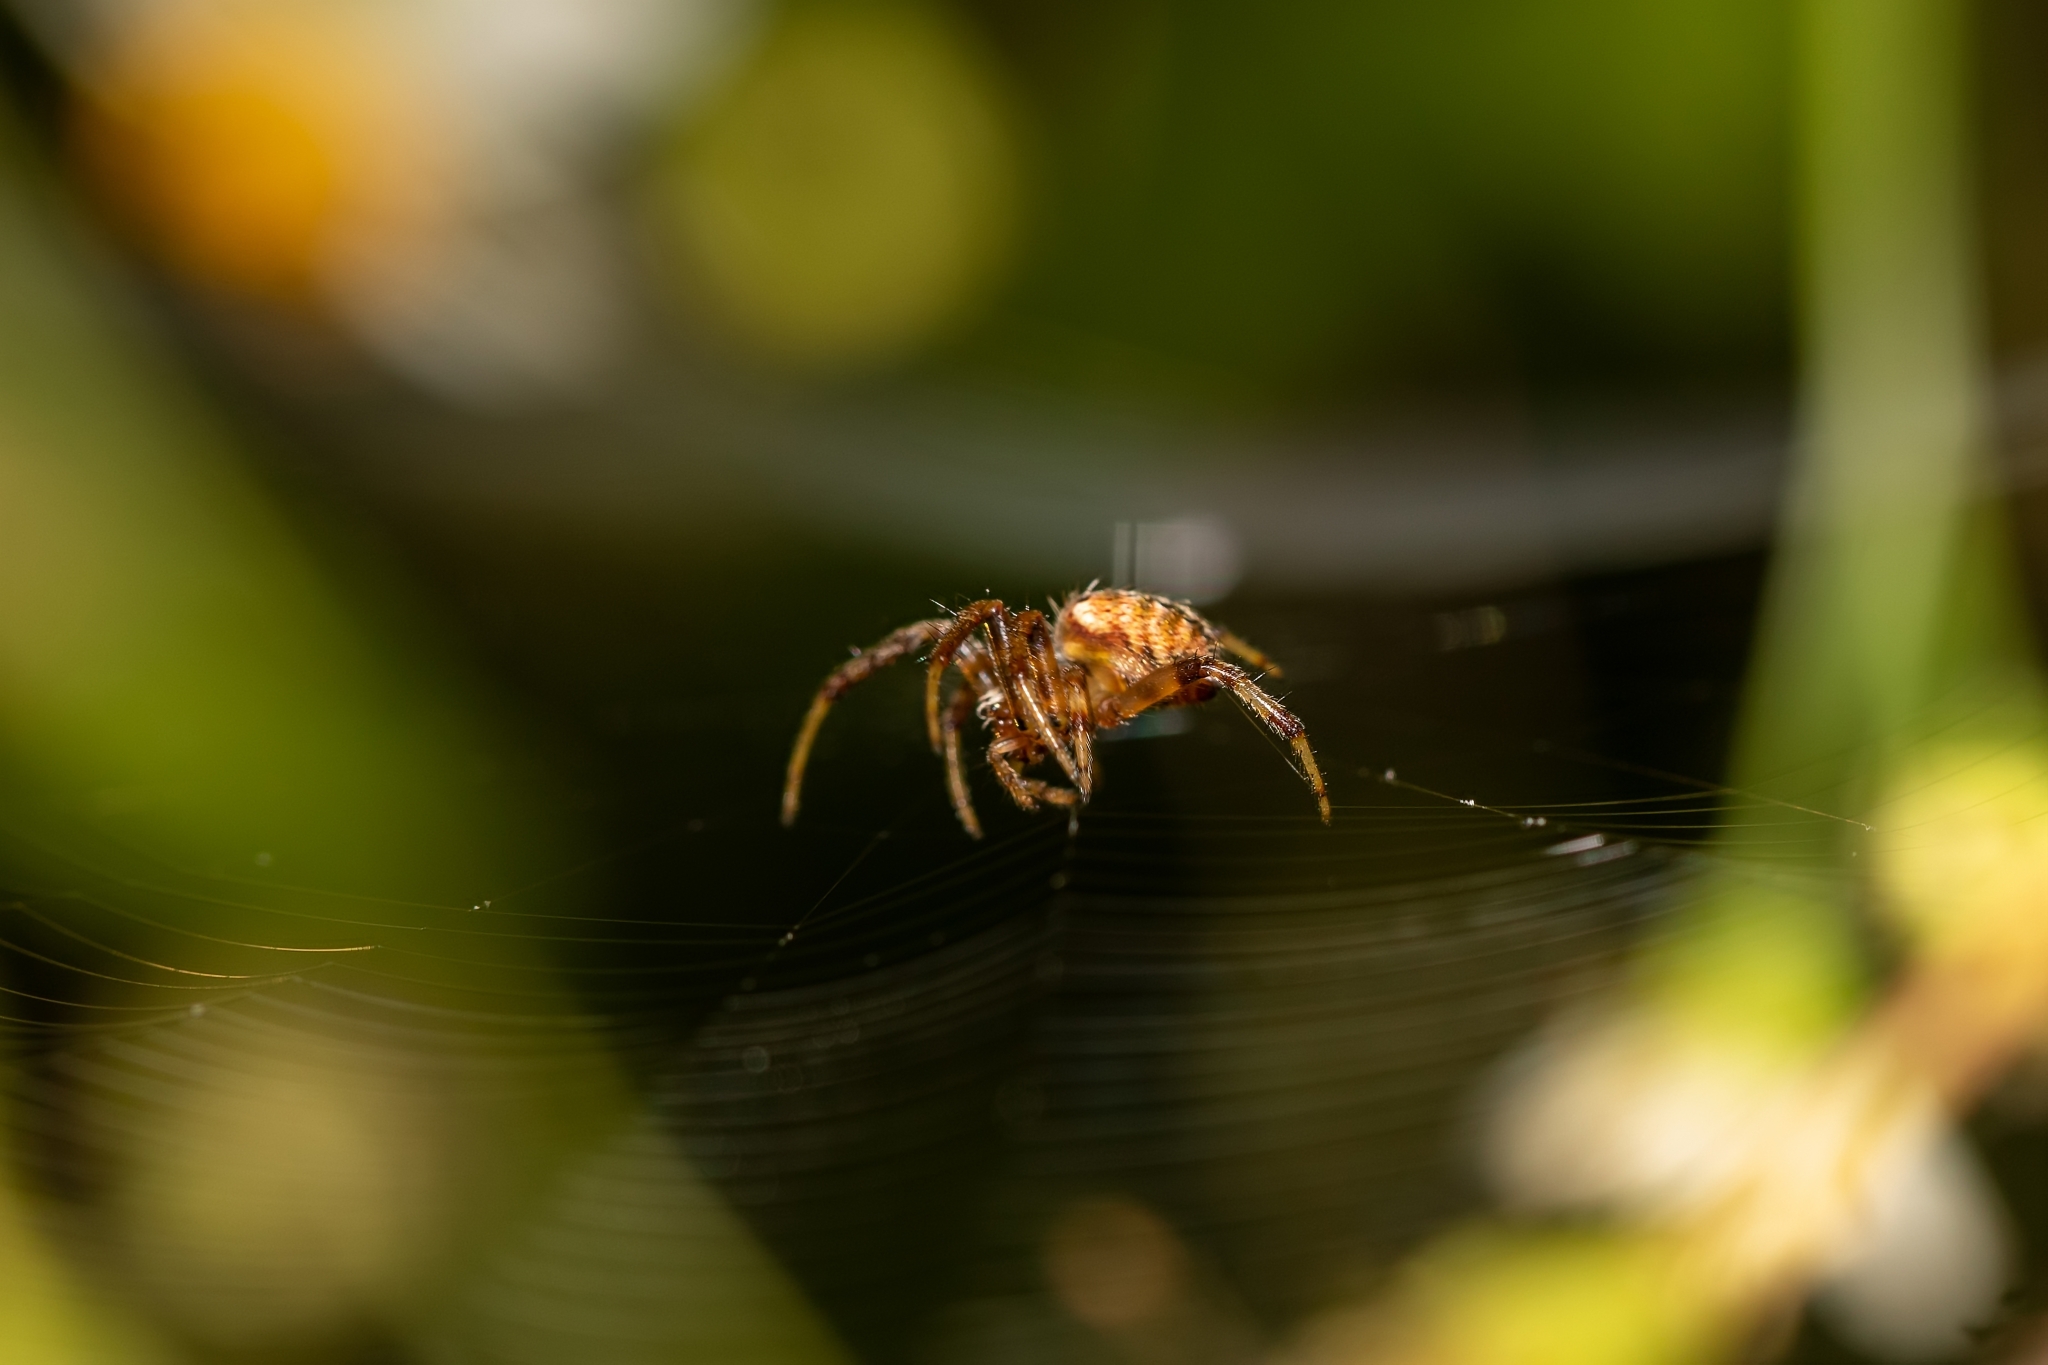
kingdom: Animalia
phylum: Arthropoda
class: Arachnida
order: Araneae
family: Araneidae
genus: Neoscona
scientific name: Neoscona arabesca
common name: Orb weavers
